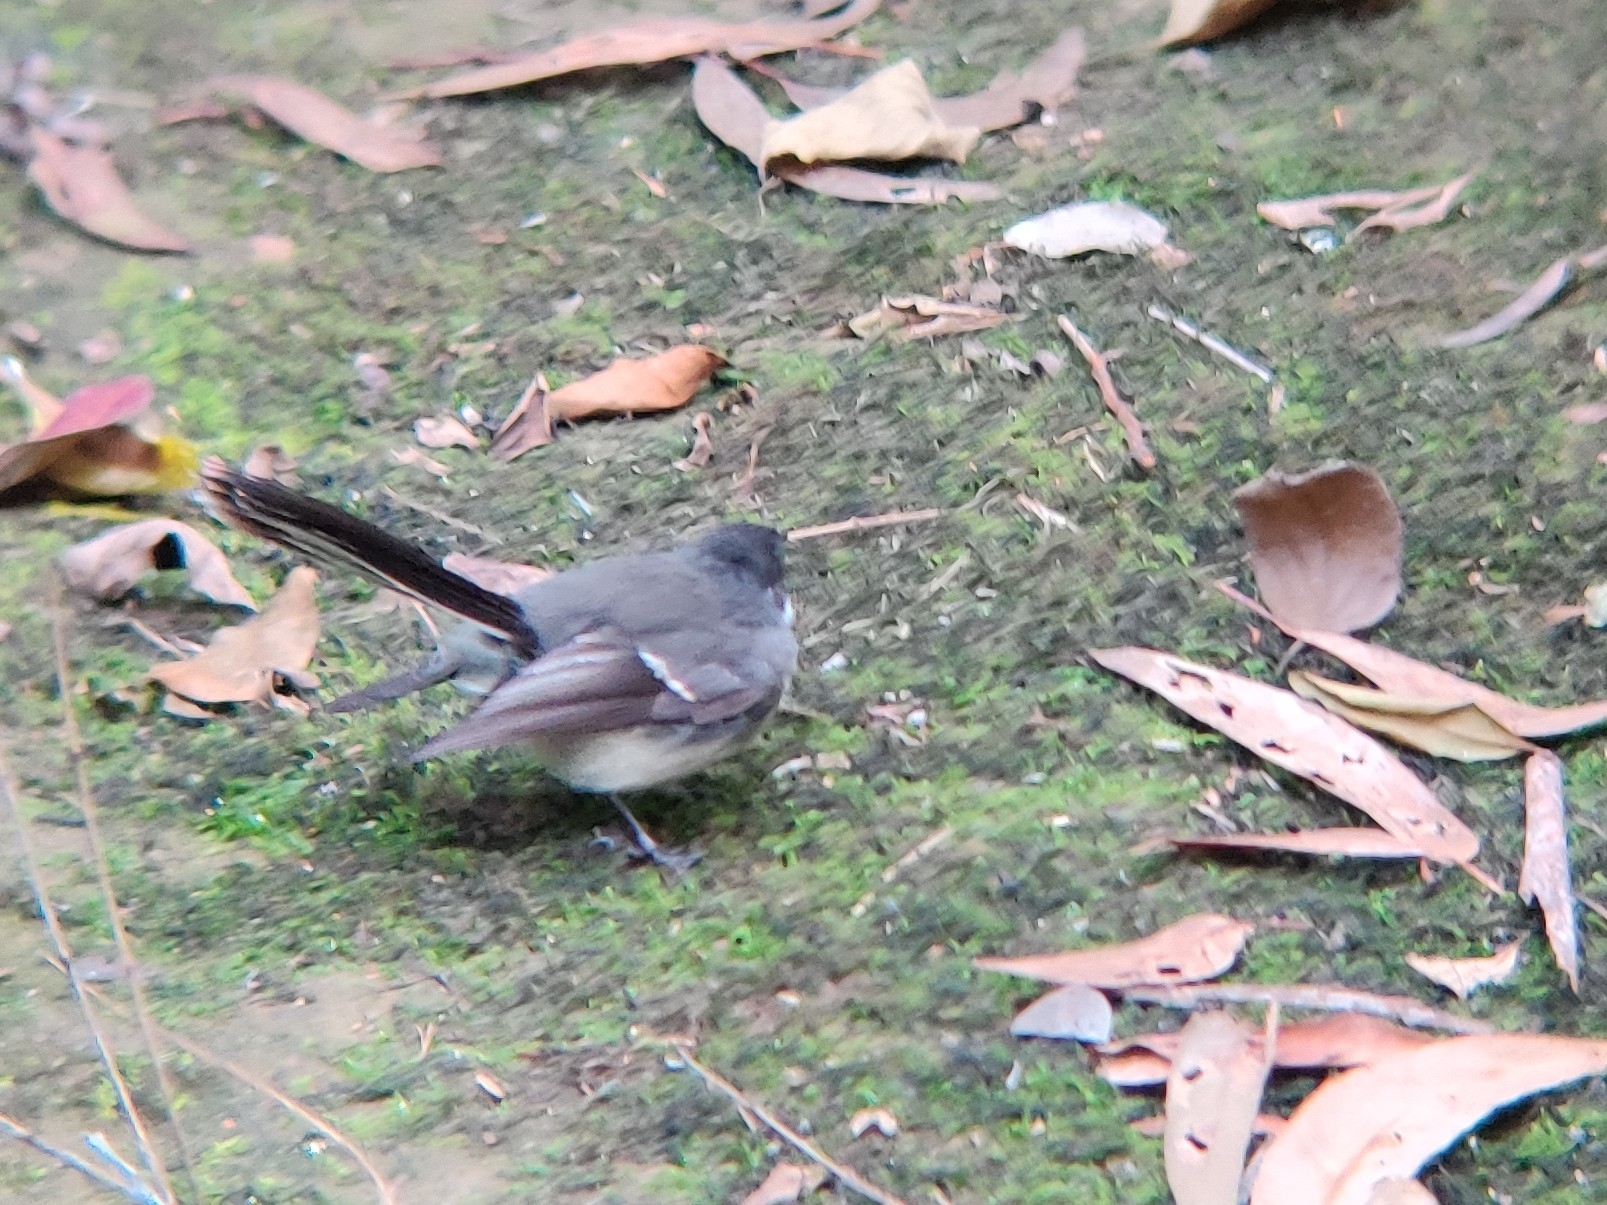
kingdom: Animalia
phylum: Chordata
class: Aves
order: Passeriformes
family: Rhipiduridae
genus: Rhipidura
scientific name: Rhipidura albiscapa
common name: Grey fantail
